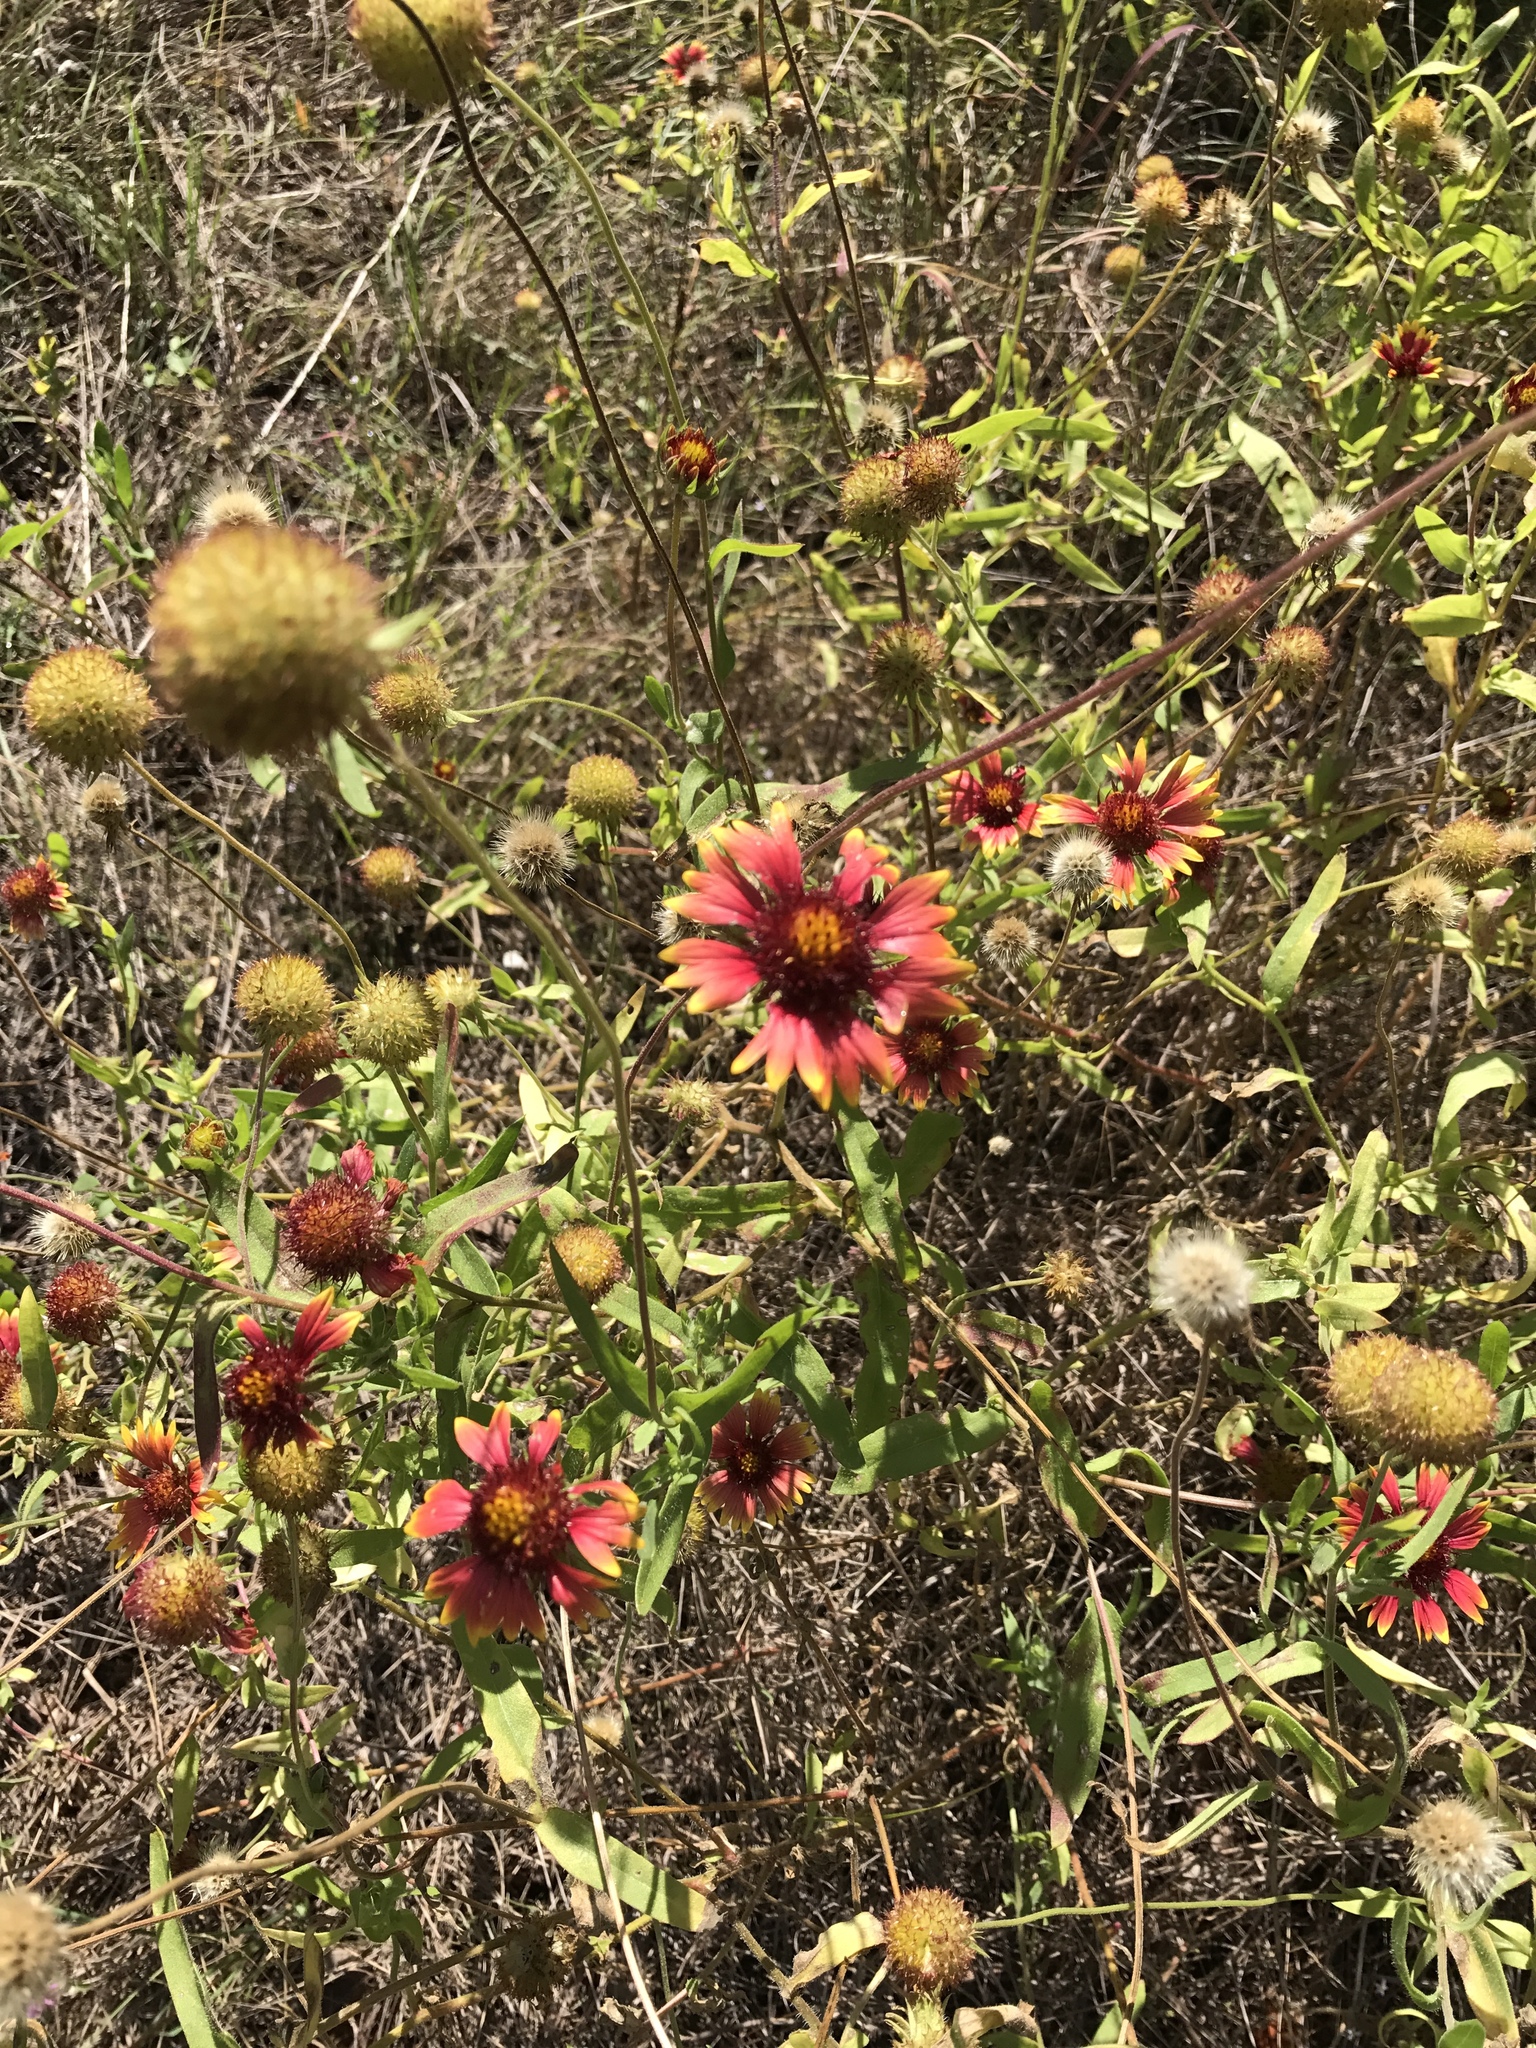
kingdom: Plantae
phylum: Tracheophyta
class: Magnoliopsida
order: Asterales
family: Asteraceae
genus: Gaillardia
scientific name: Gaillardia pulchella
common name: Firewheel
